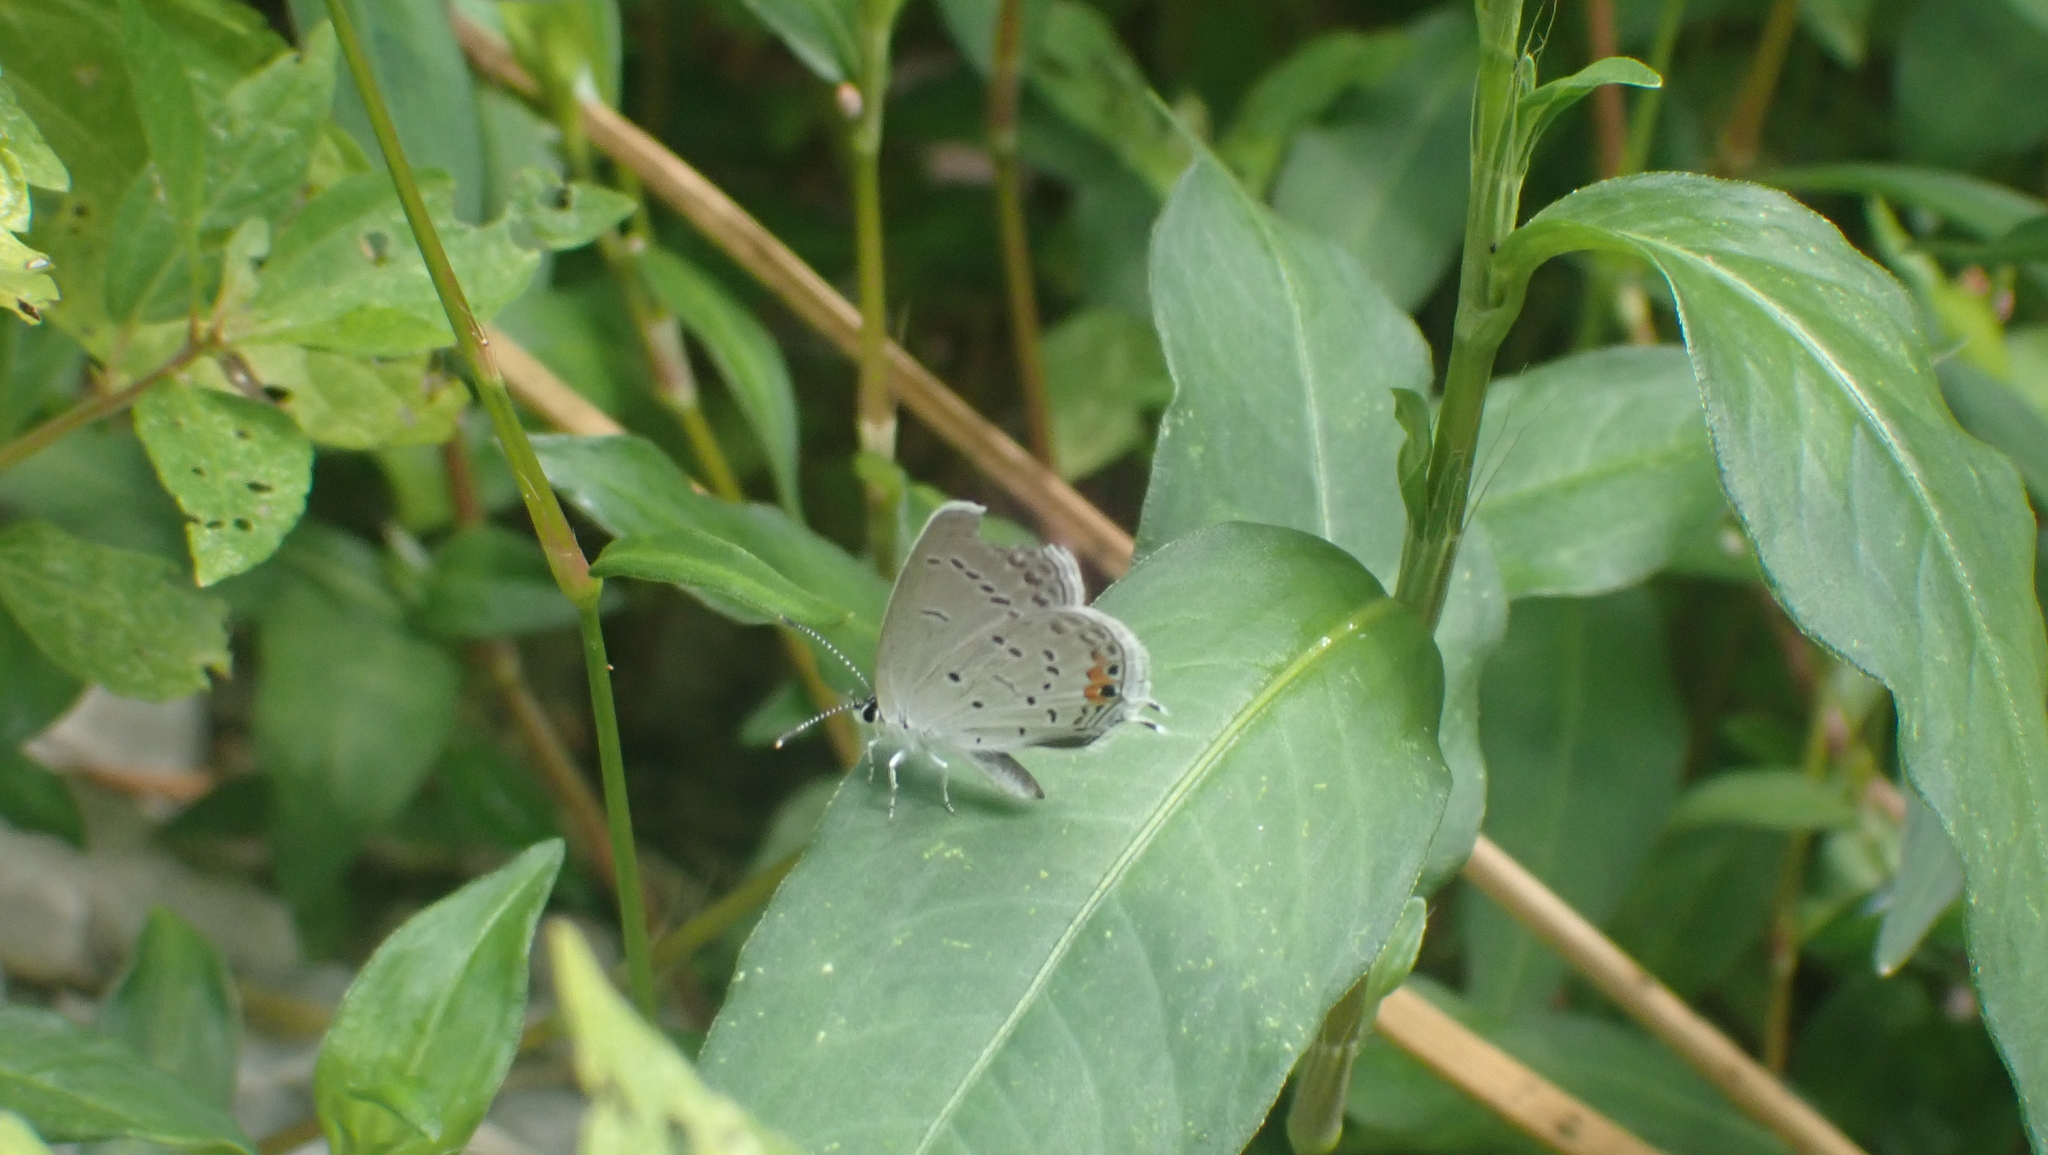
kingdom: Animalia
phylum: Arthropoda
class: Insecta
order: Lepidoptera
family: Lycaenidae
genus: Elkalyce
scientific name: Elkalyce comyntas
